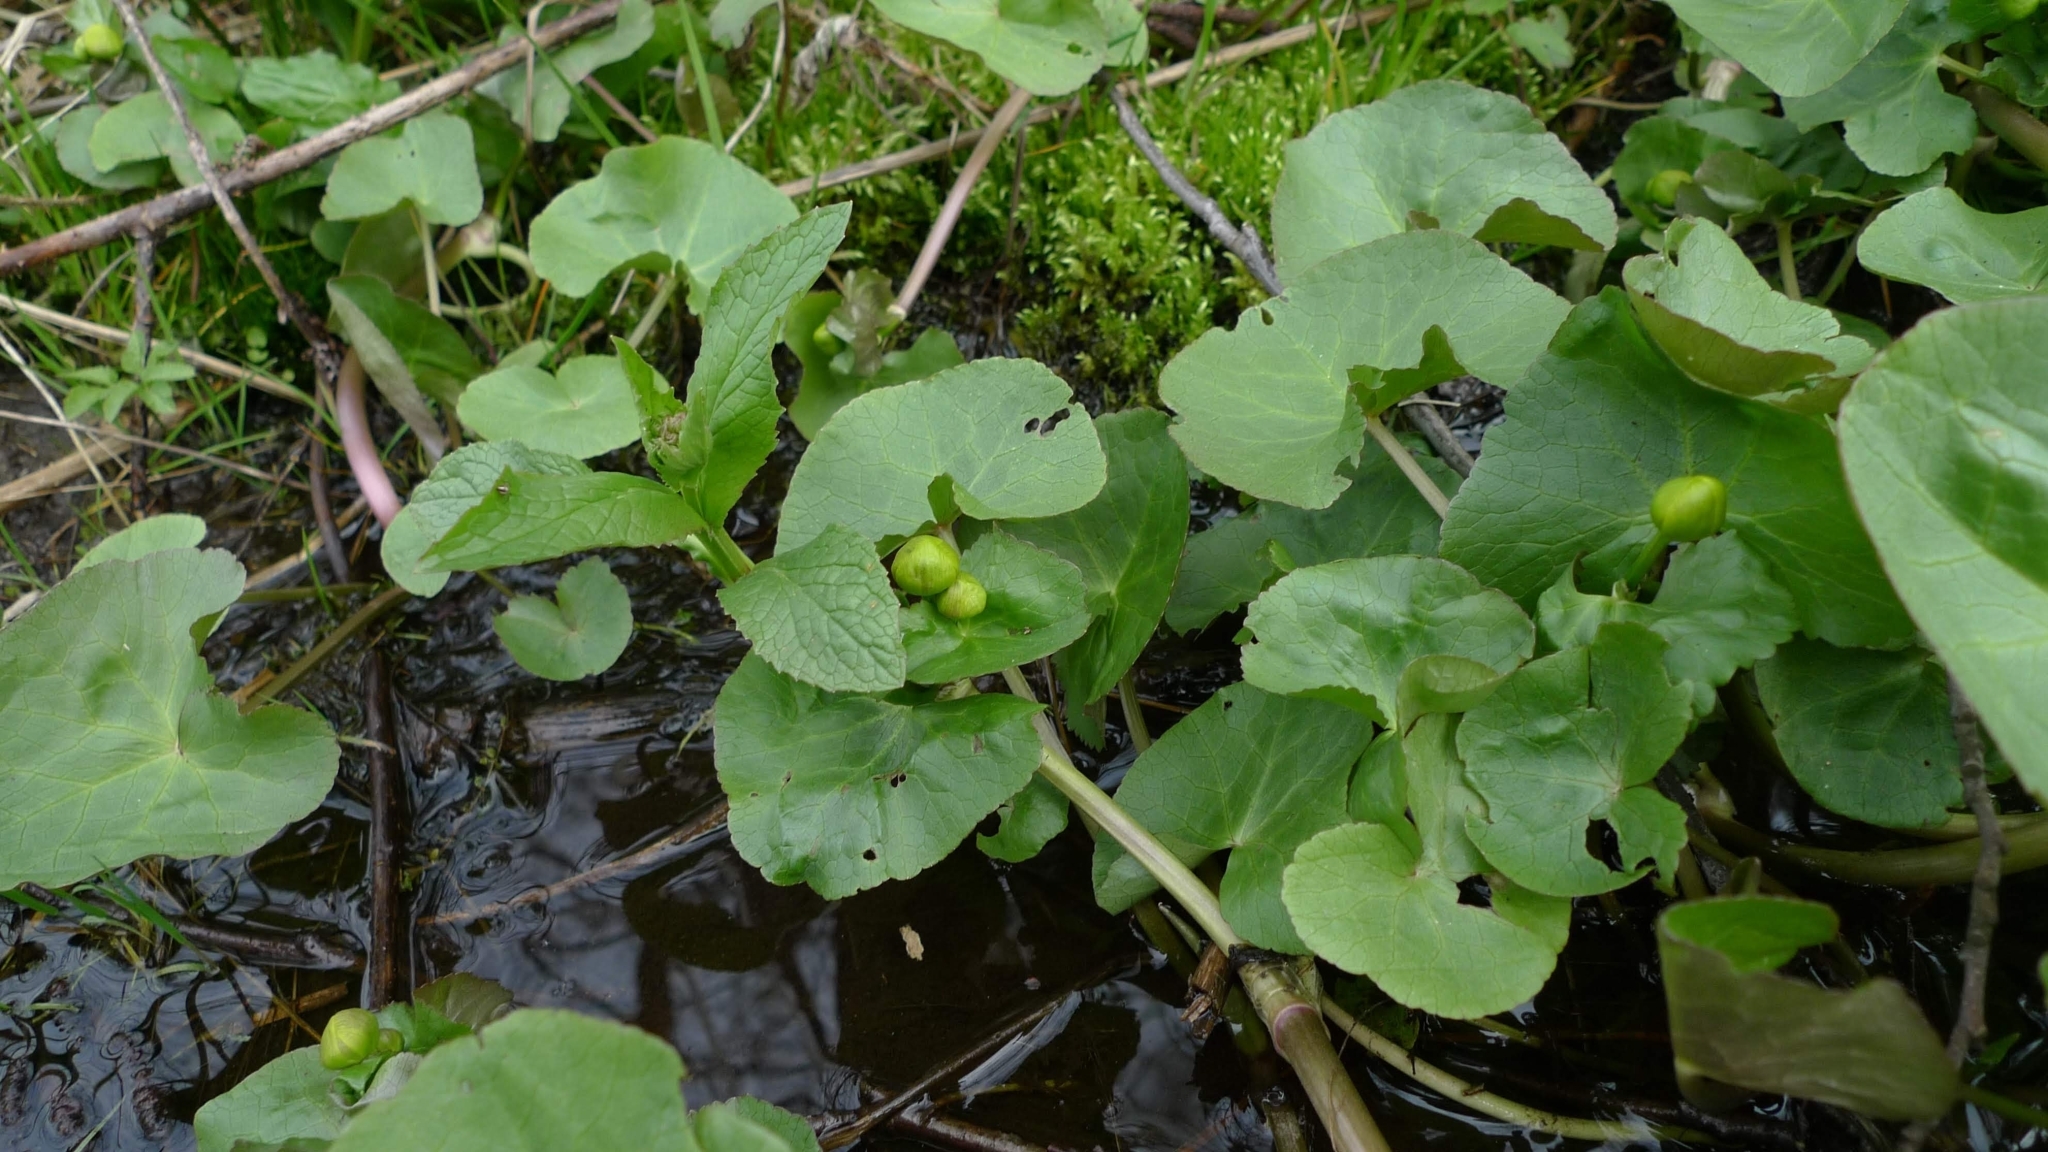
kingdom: Plantae
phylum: Tracheophyta
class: Magnoliopsida
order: Ranunculales
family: Ranunculaceae
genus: Caltha
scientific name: Caltha palustris
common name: Marsh marigold
